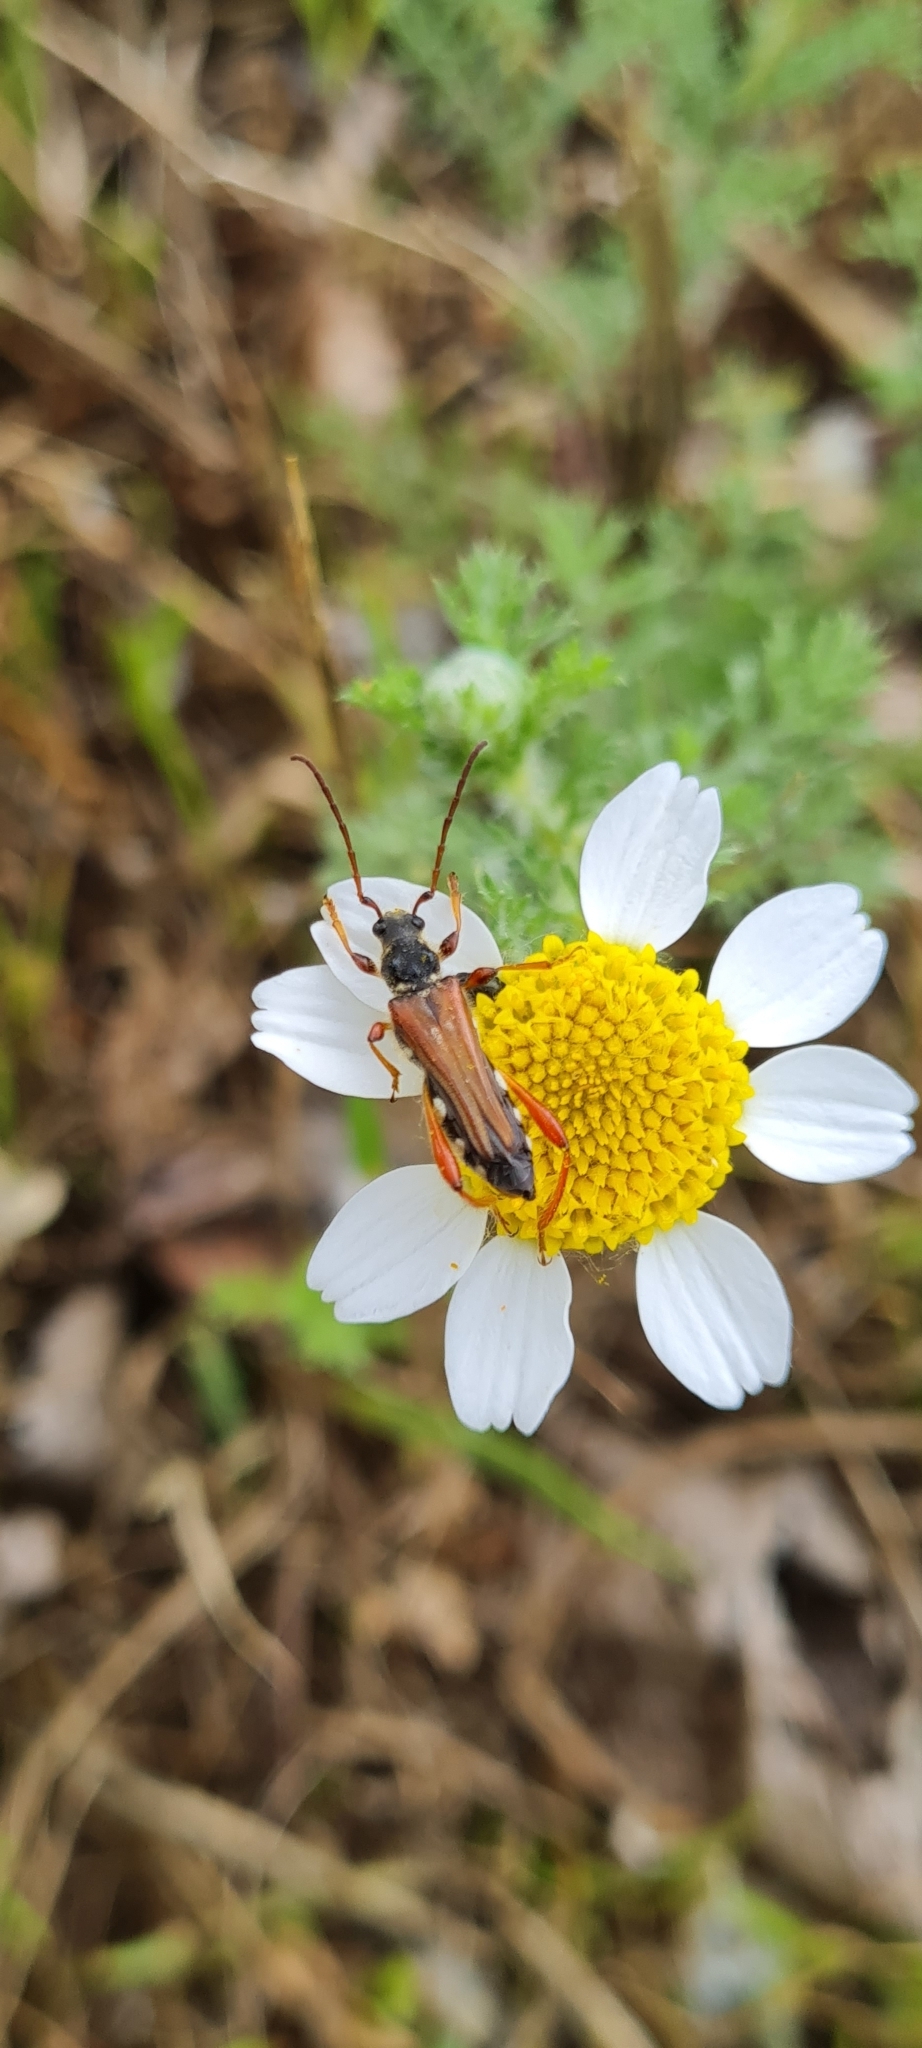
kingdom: Animalia
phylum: Arthropoda
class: Insecta
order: Coleoptera
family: Cerambycidae
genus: Stenopterus
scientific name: Stenopterus rufus
